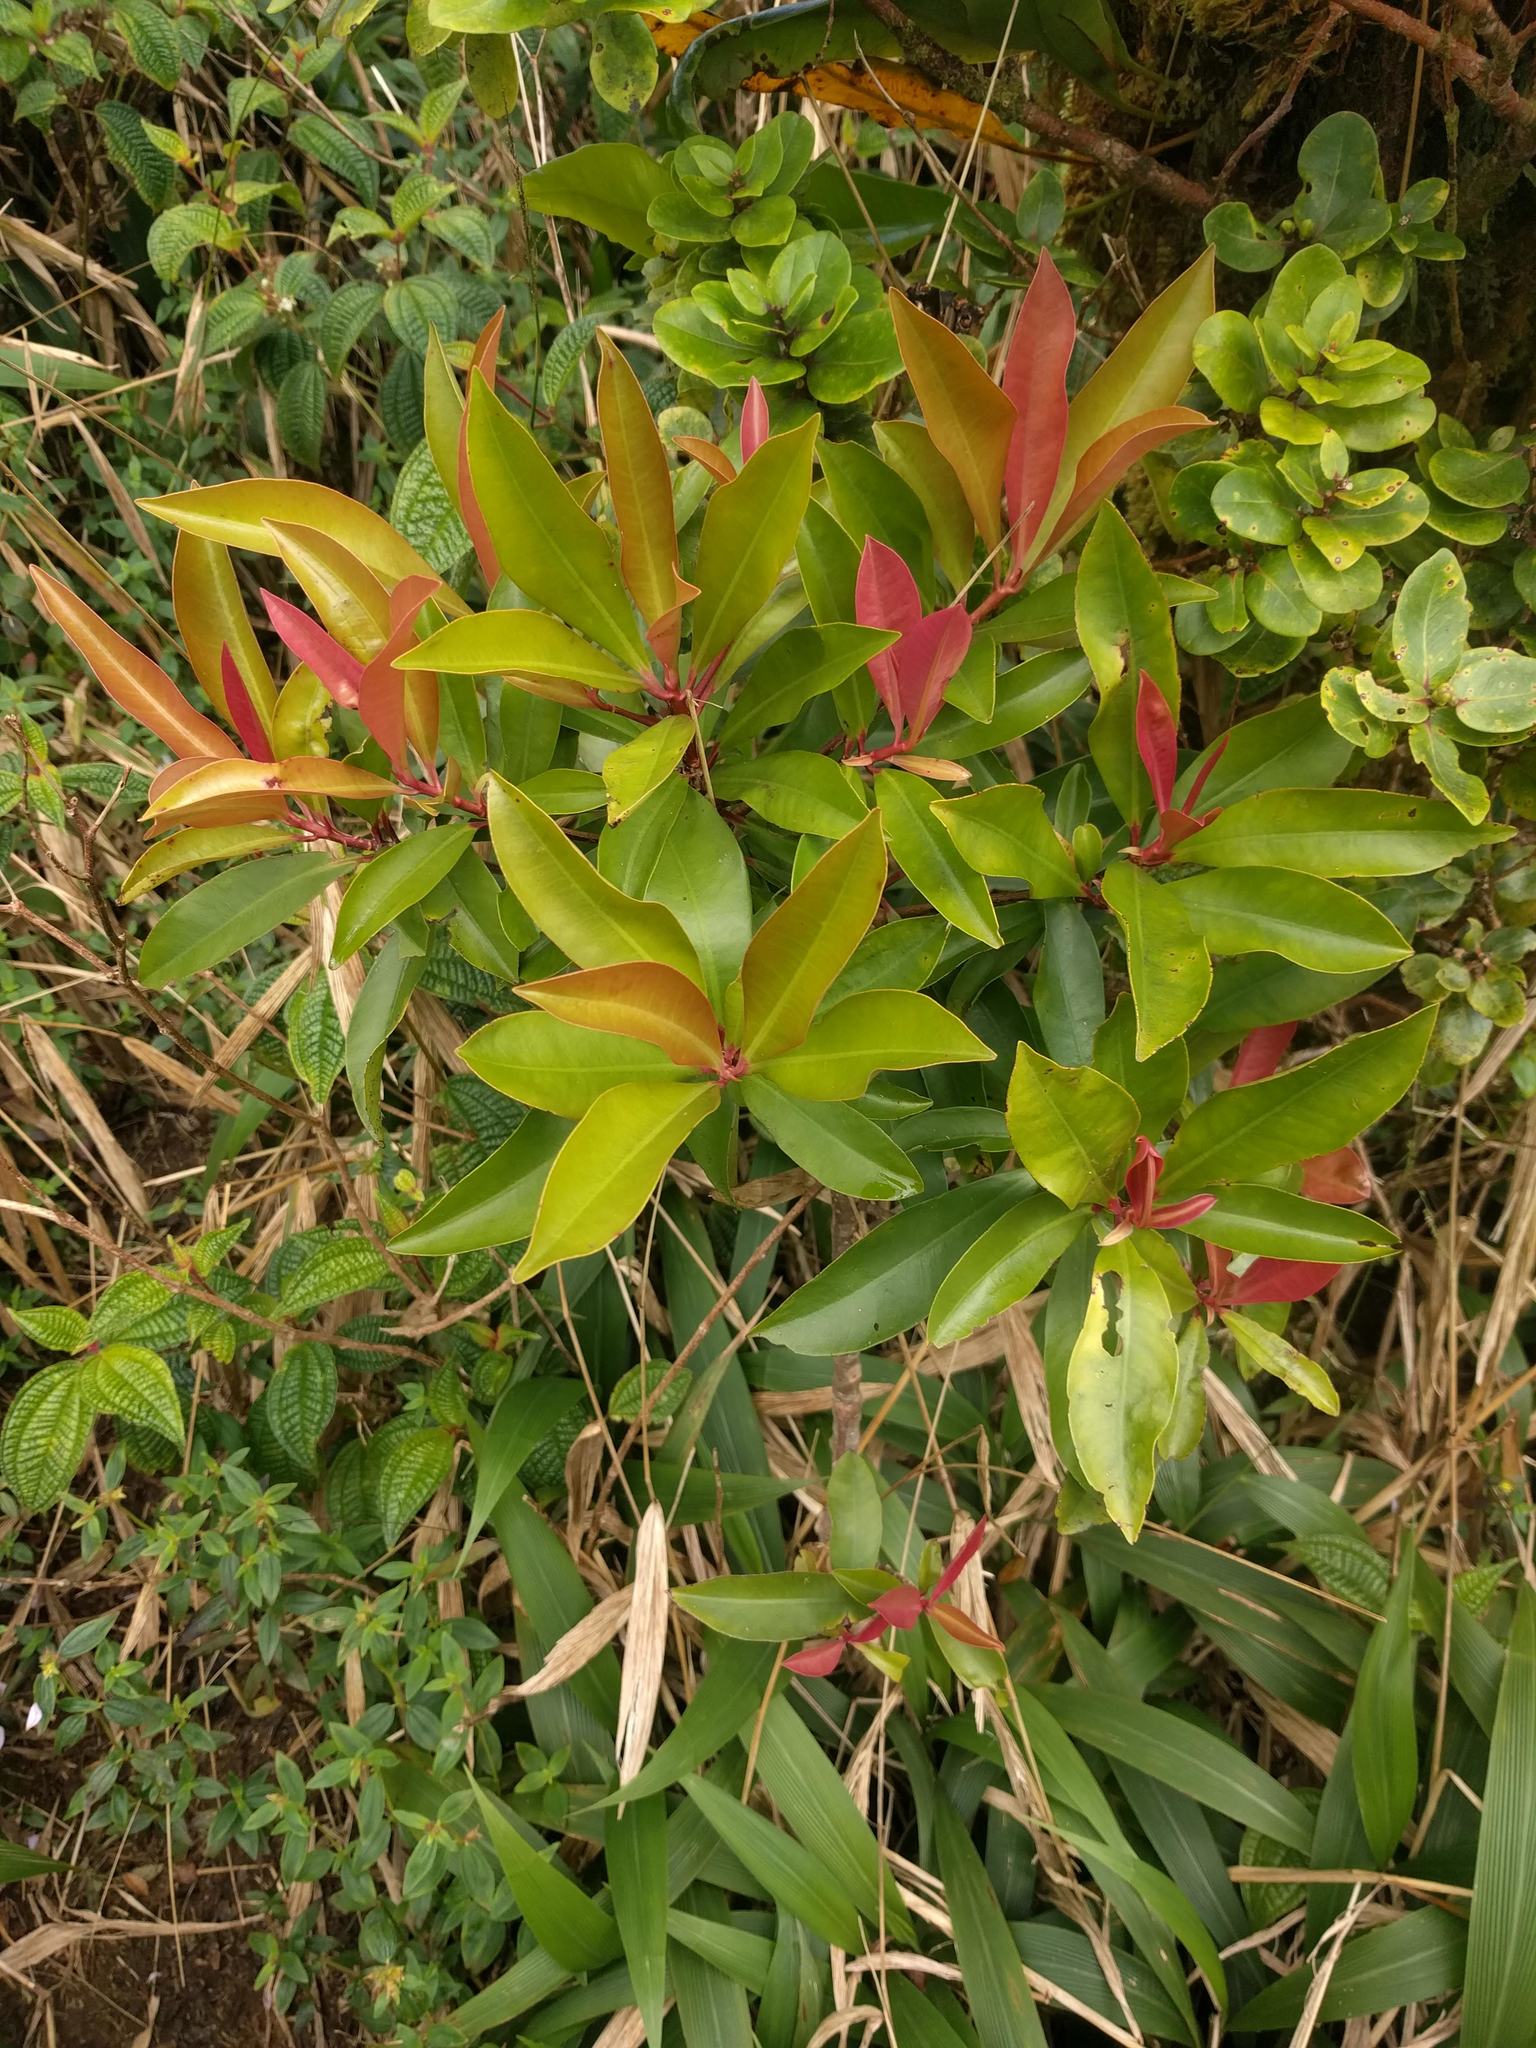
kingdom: Plantae
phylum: Tracheophyta
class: Magnoliopsida
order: Ericales
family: Primulaceae
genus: Ardisia
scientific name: Ardisia elliptica
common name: Shoebutton
